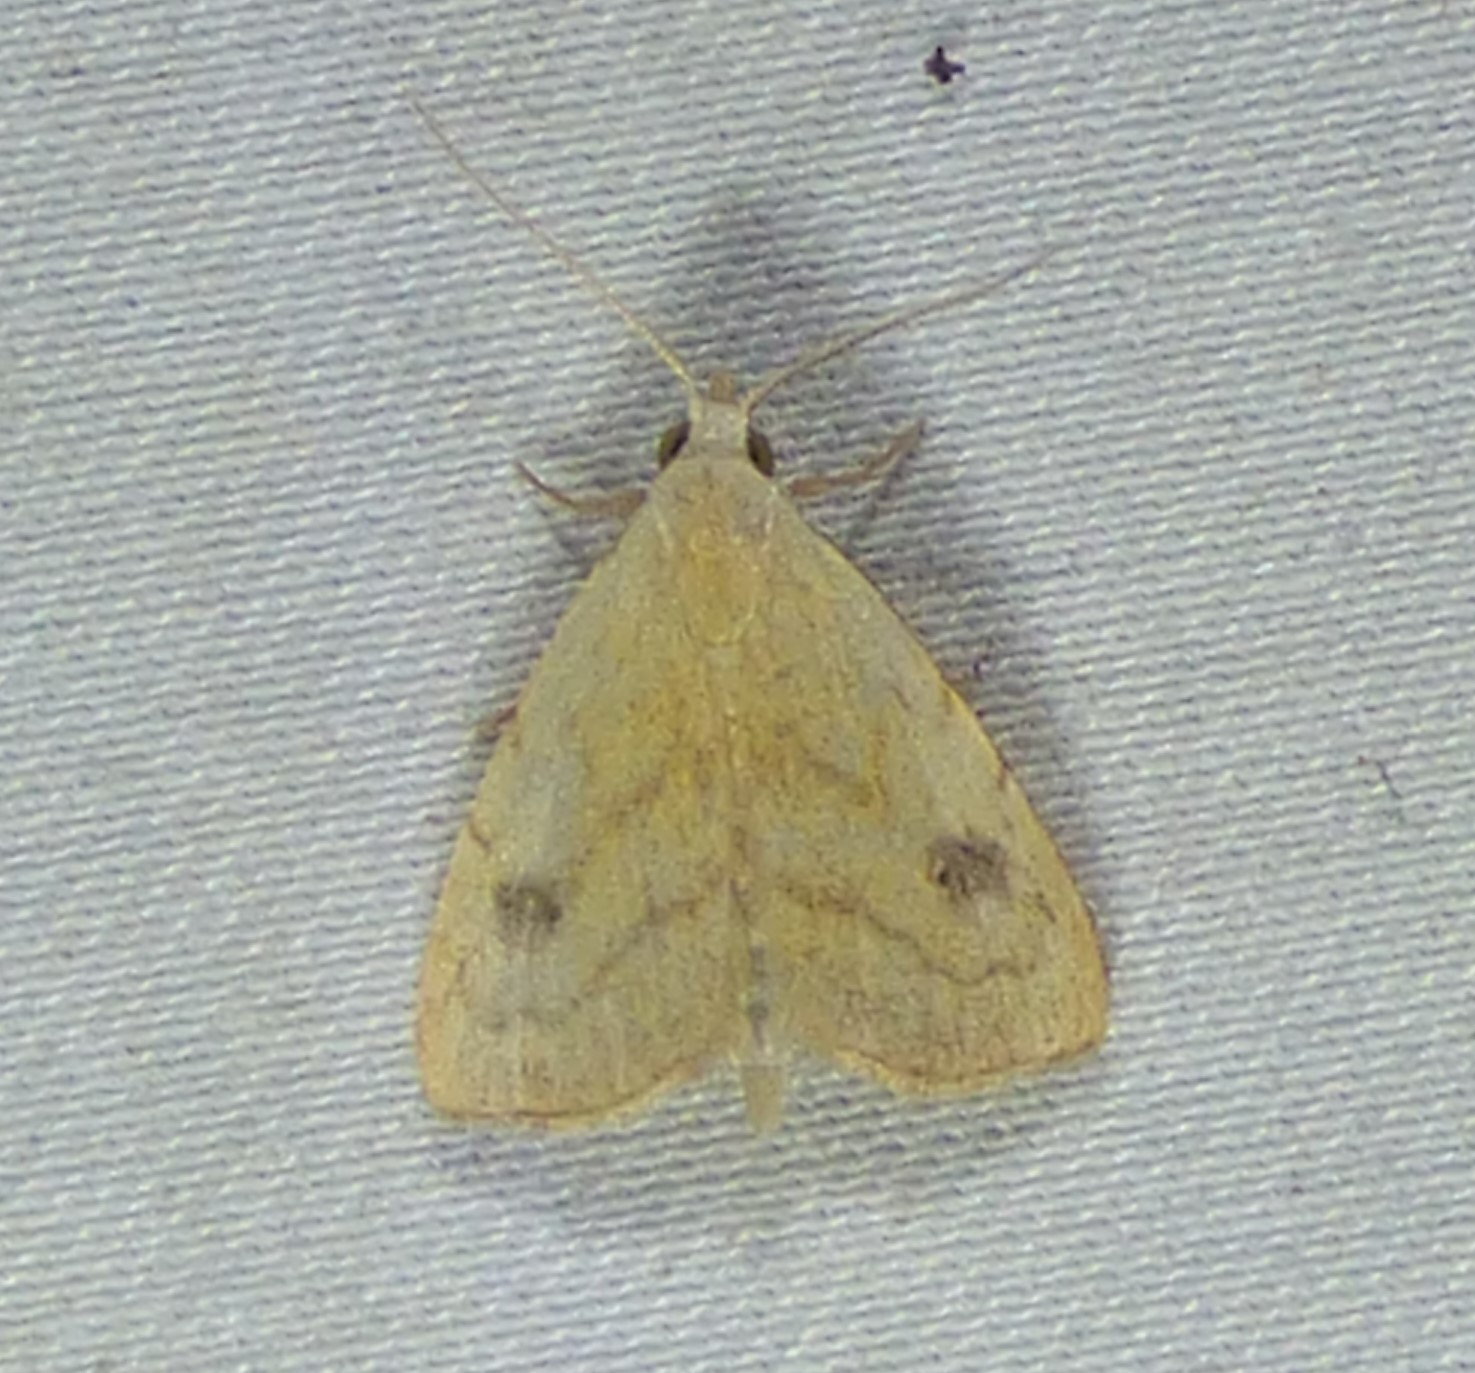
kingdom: Animalia
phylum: Arthropoda
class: Insecta
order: Lepidoptera
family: Erebidae
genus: Rivula
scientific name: Rivula propinqualis
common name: Spotted grass moth
